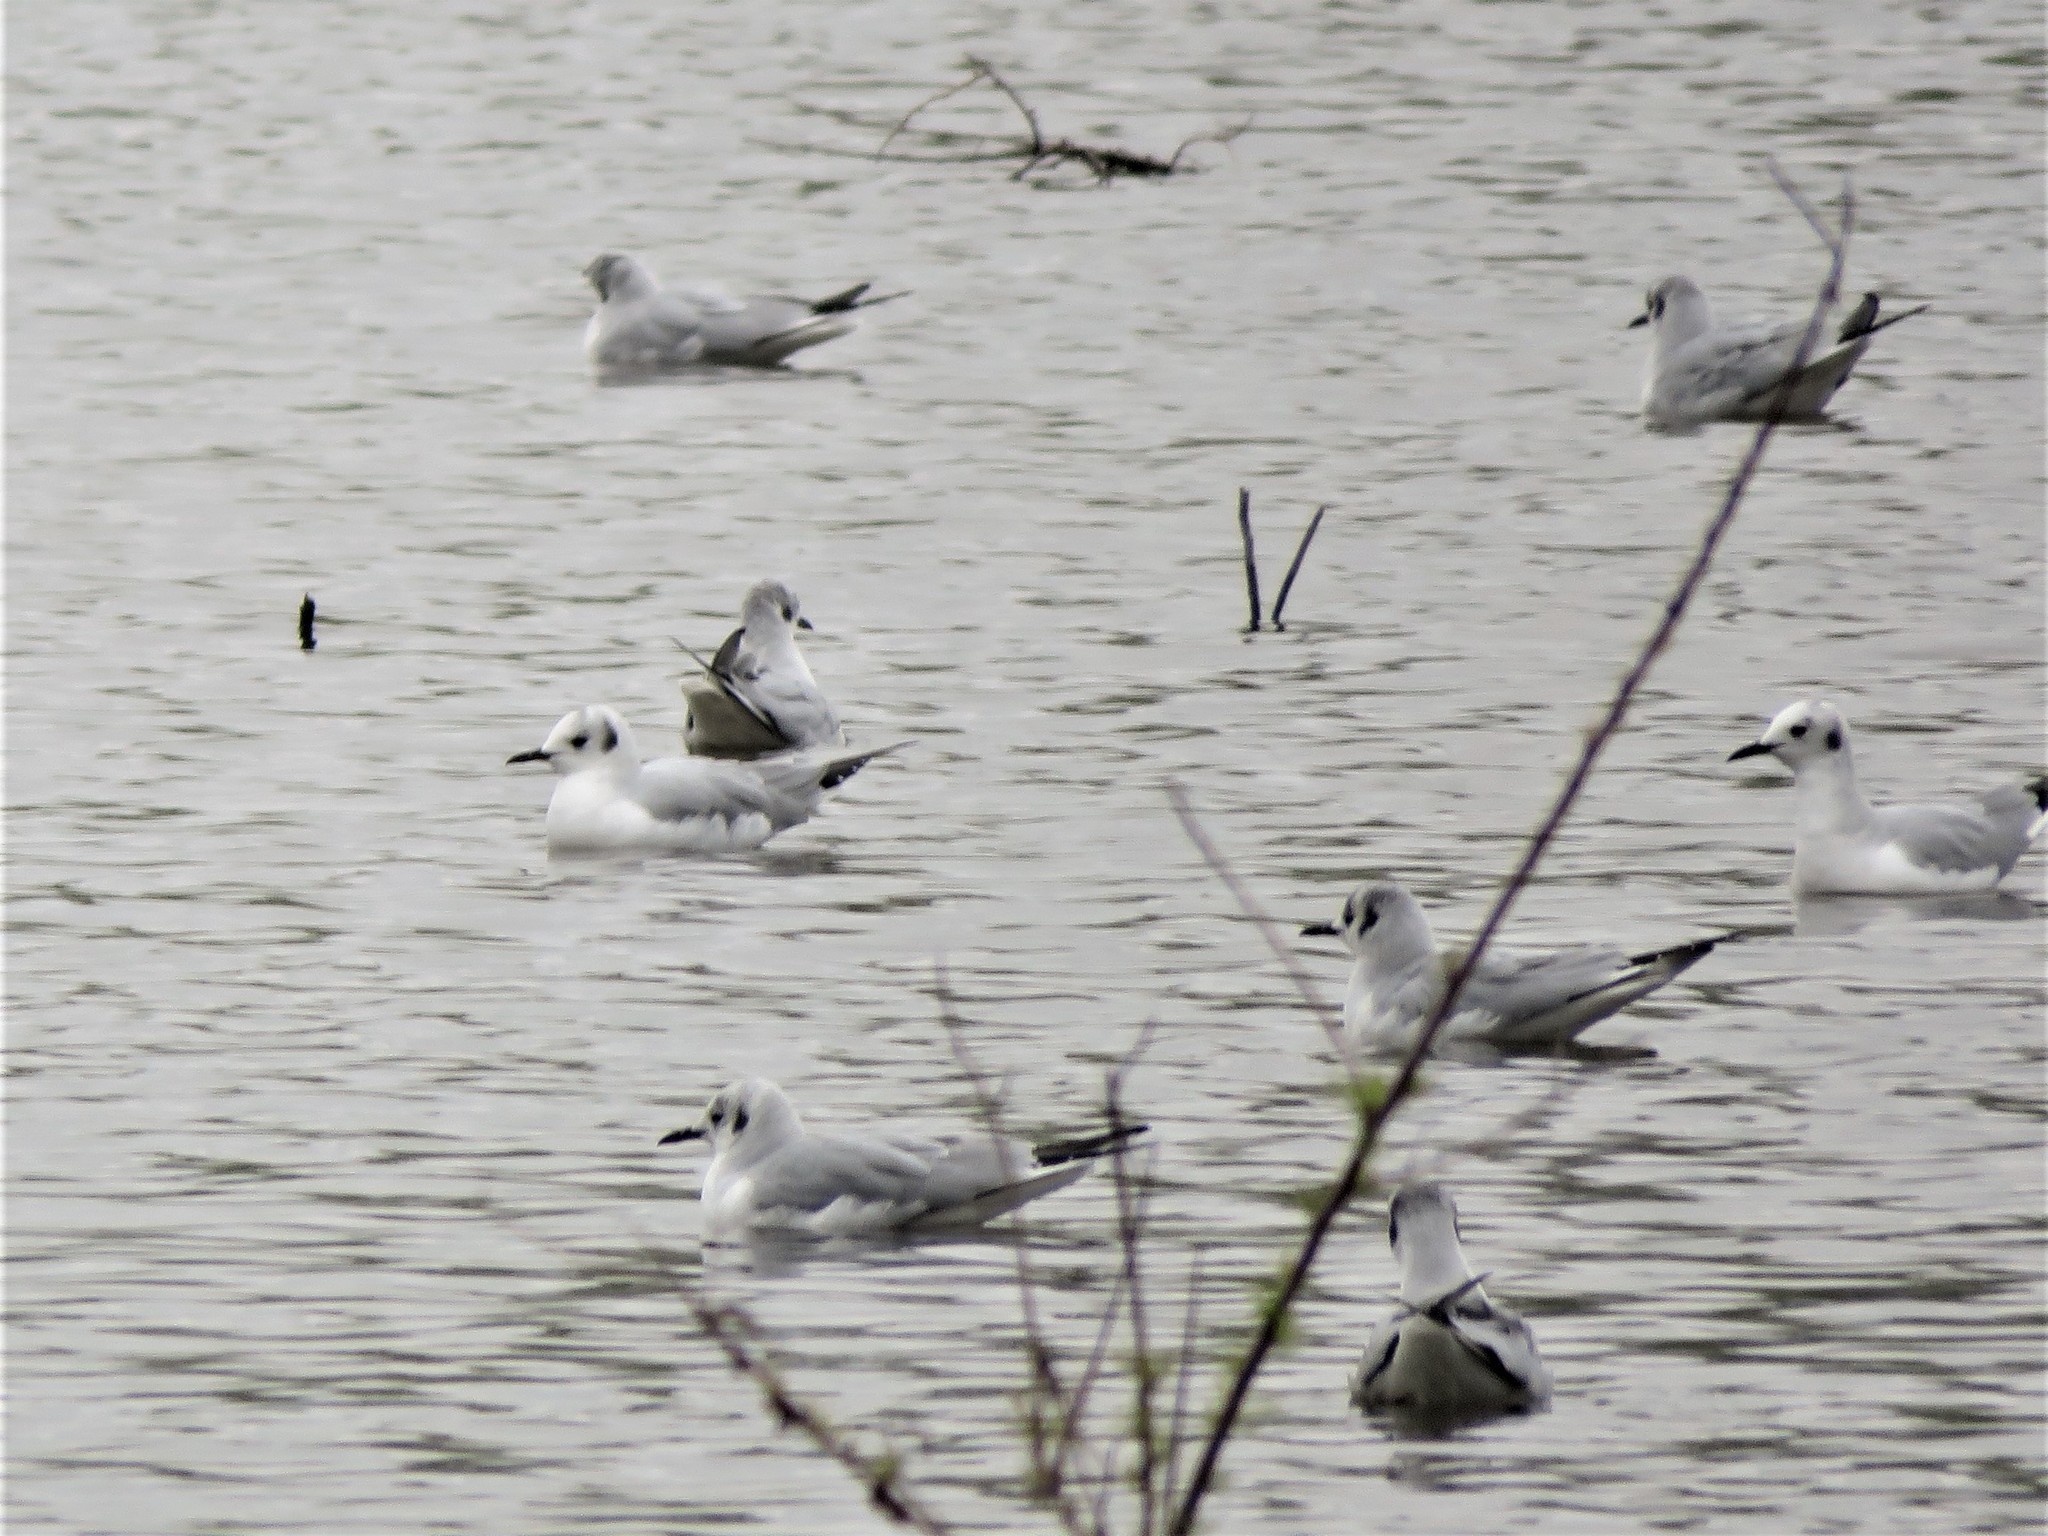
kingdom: Animalia
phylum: Chordata
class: Aves
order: Charadriiformes
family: Laridae
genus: Chroicocephalus
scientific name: Chroicocephalus philadelphia
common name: Bonaparte's gull
